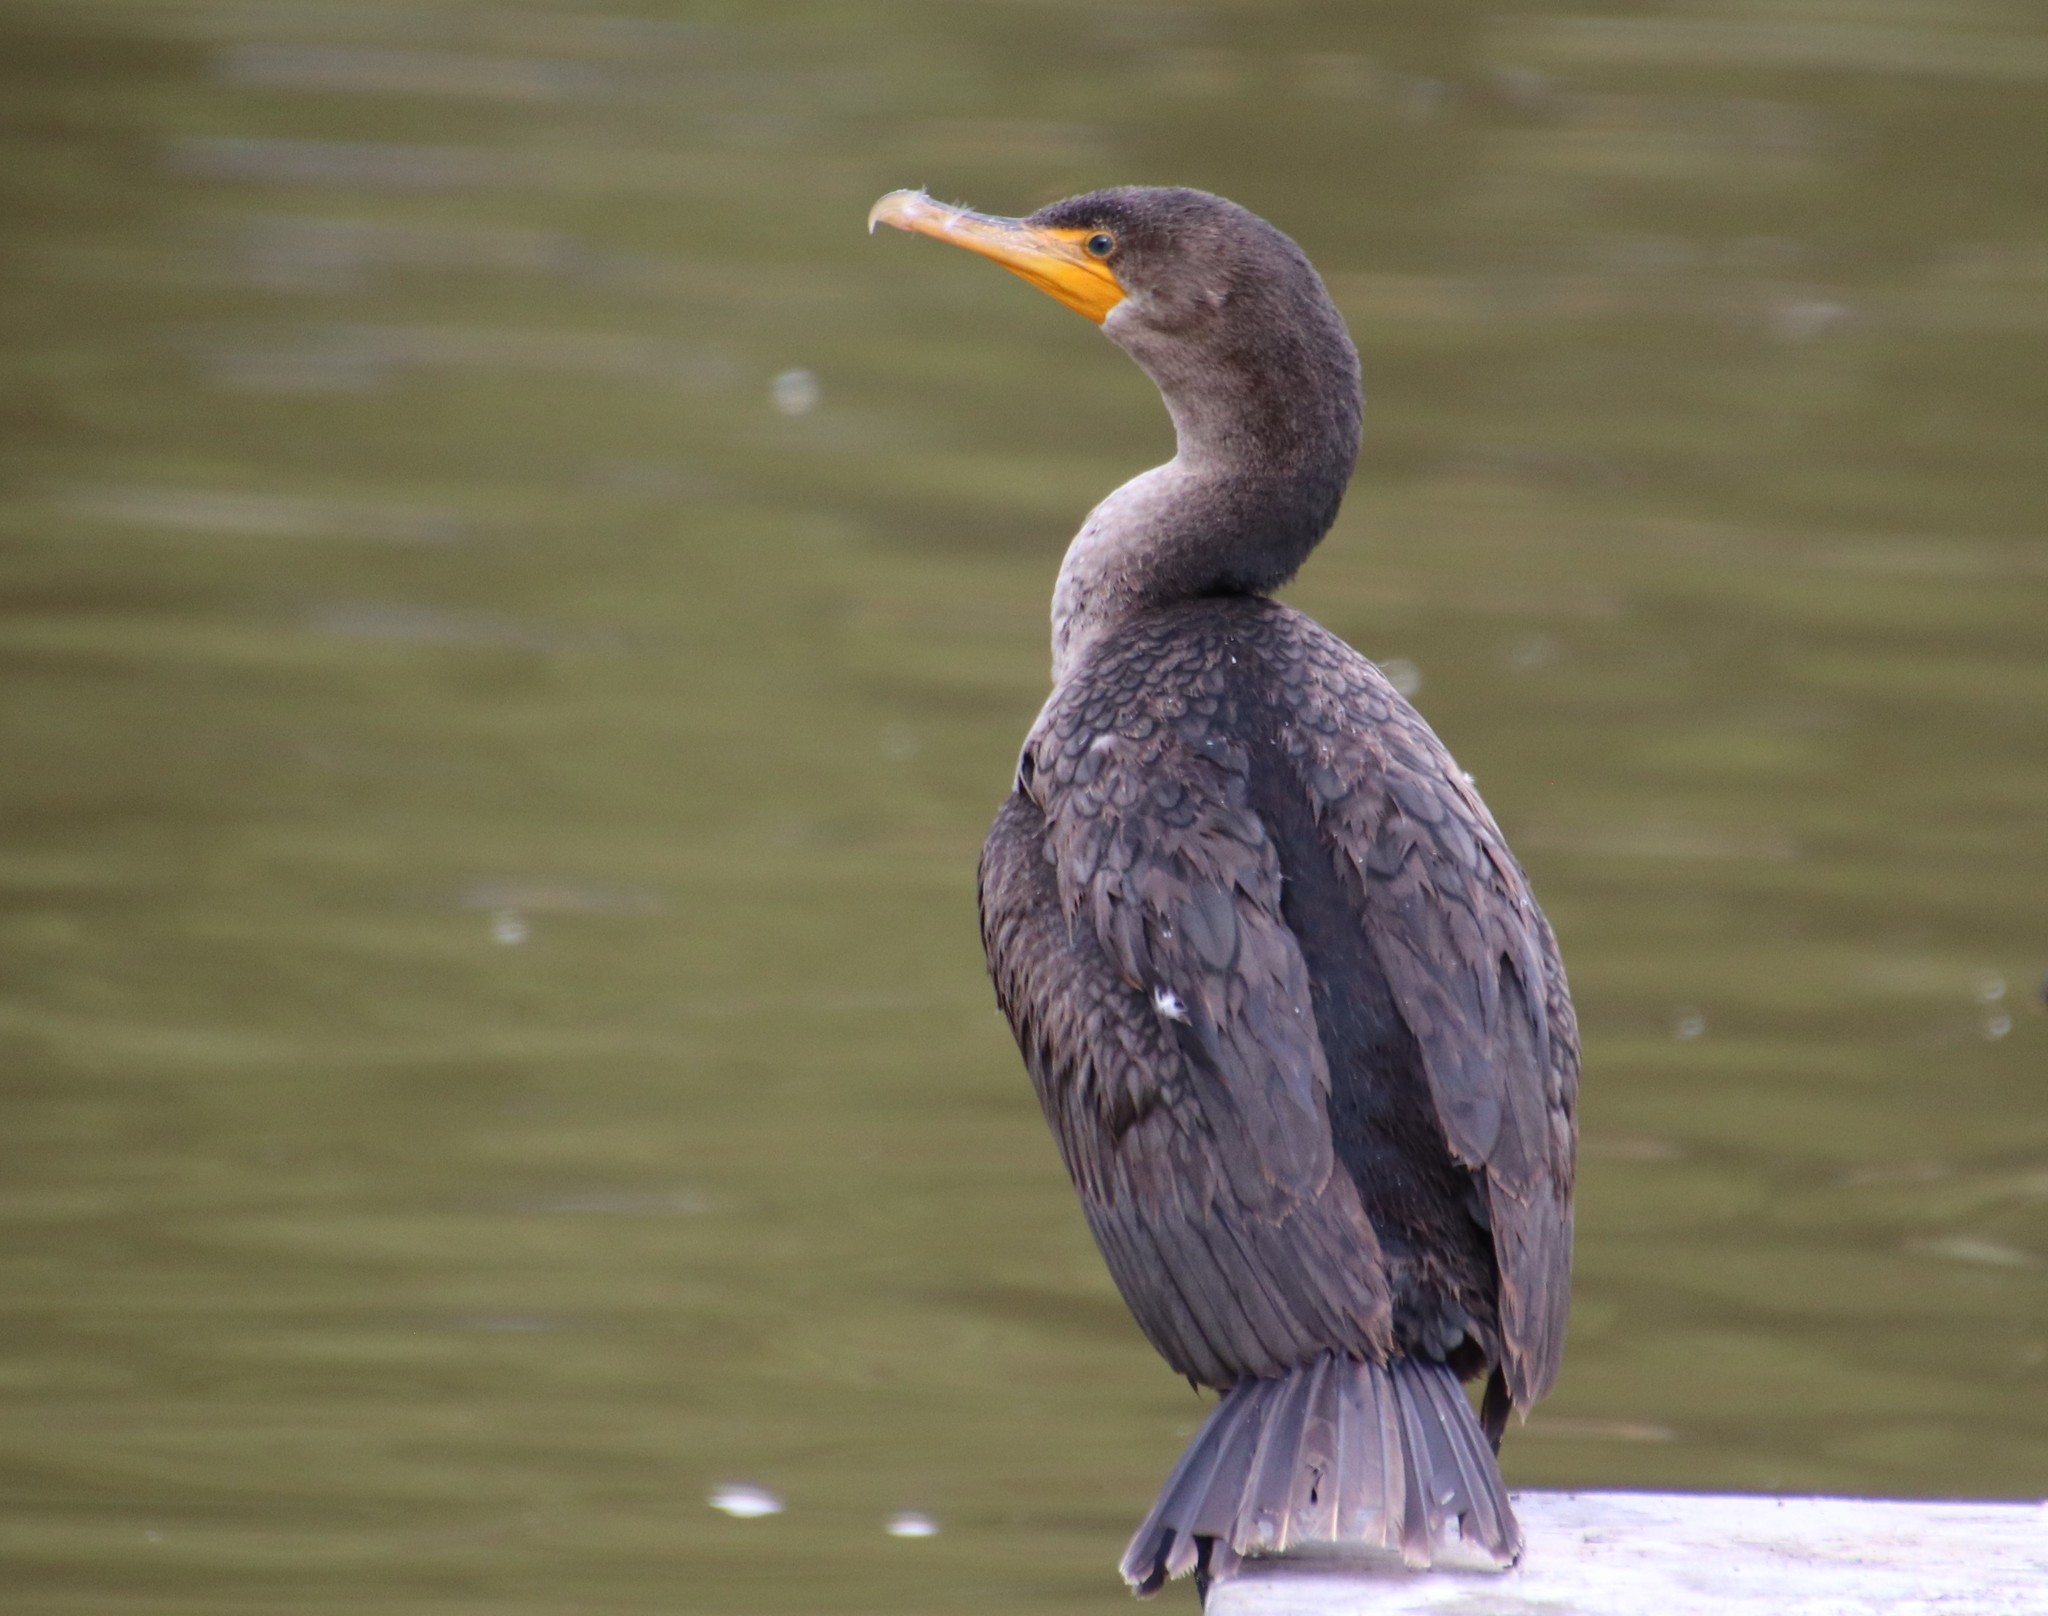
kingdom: Animalia
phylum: Chordata
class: Aves
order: Suliformes
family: Phalacrocoracidae
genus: Phalacrocorax
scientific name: Phalacrocorax auritus
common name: Double-crested cormorant
